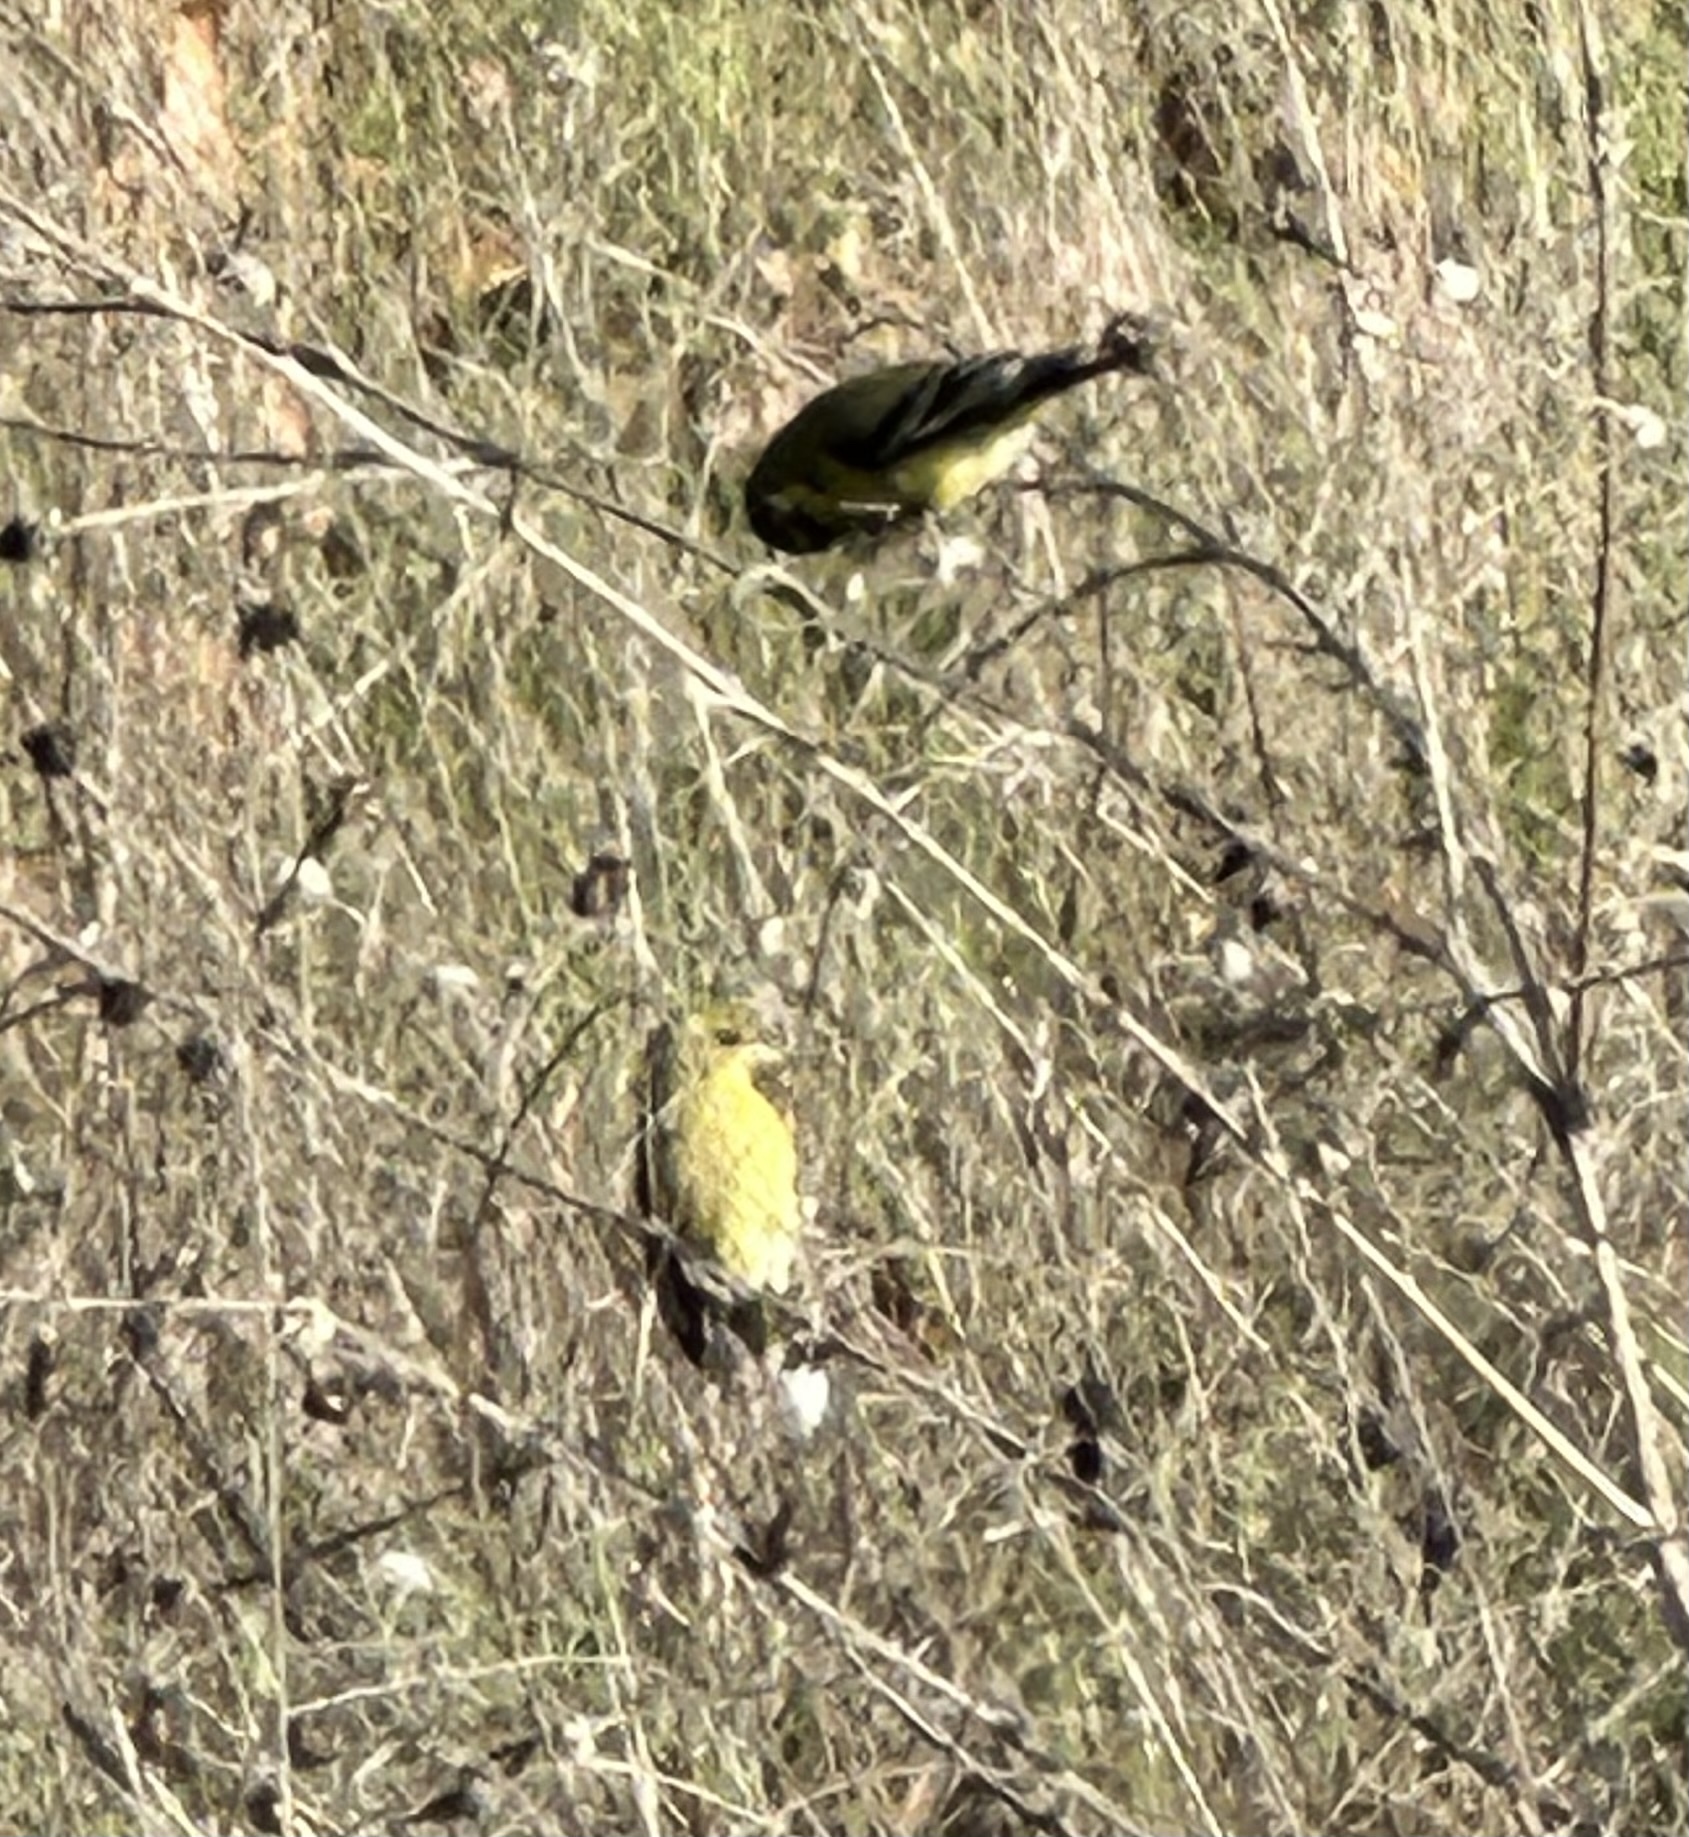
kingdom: Animalia
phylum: Chordata
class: Aves
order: Passeriformes
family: Fringillidae
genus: Spinus
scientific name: Spinus psaltria
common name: Lesser goldfinch
